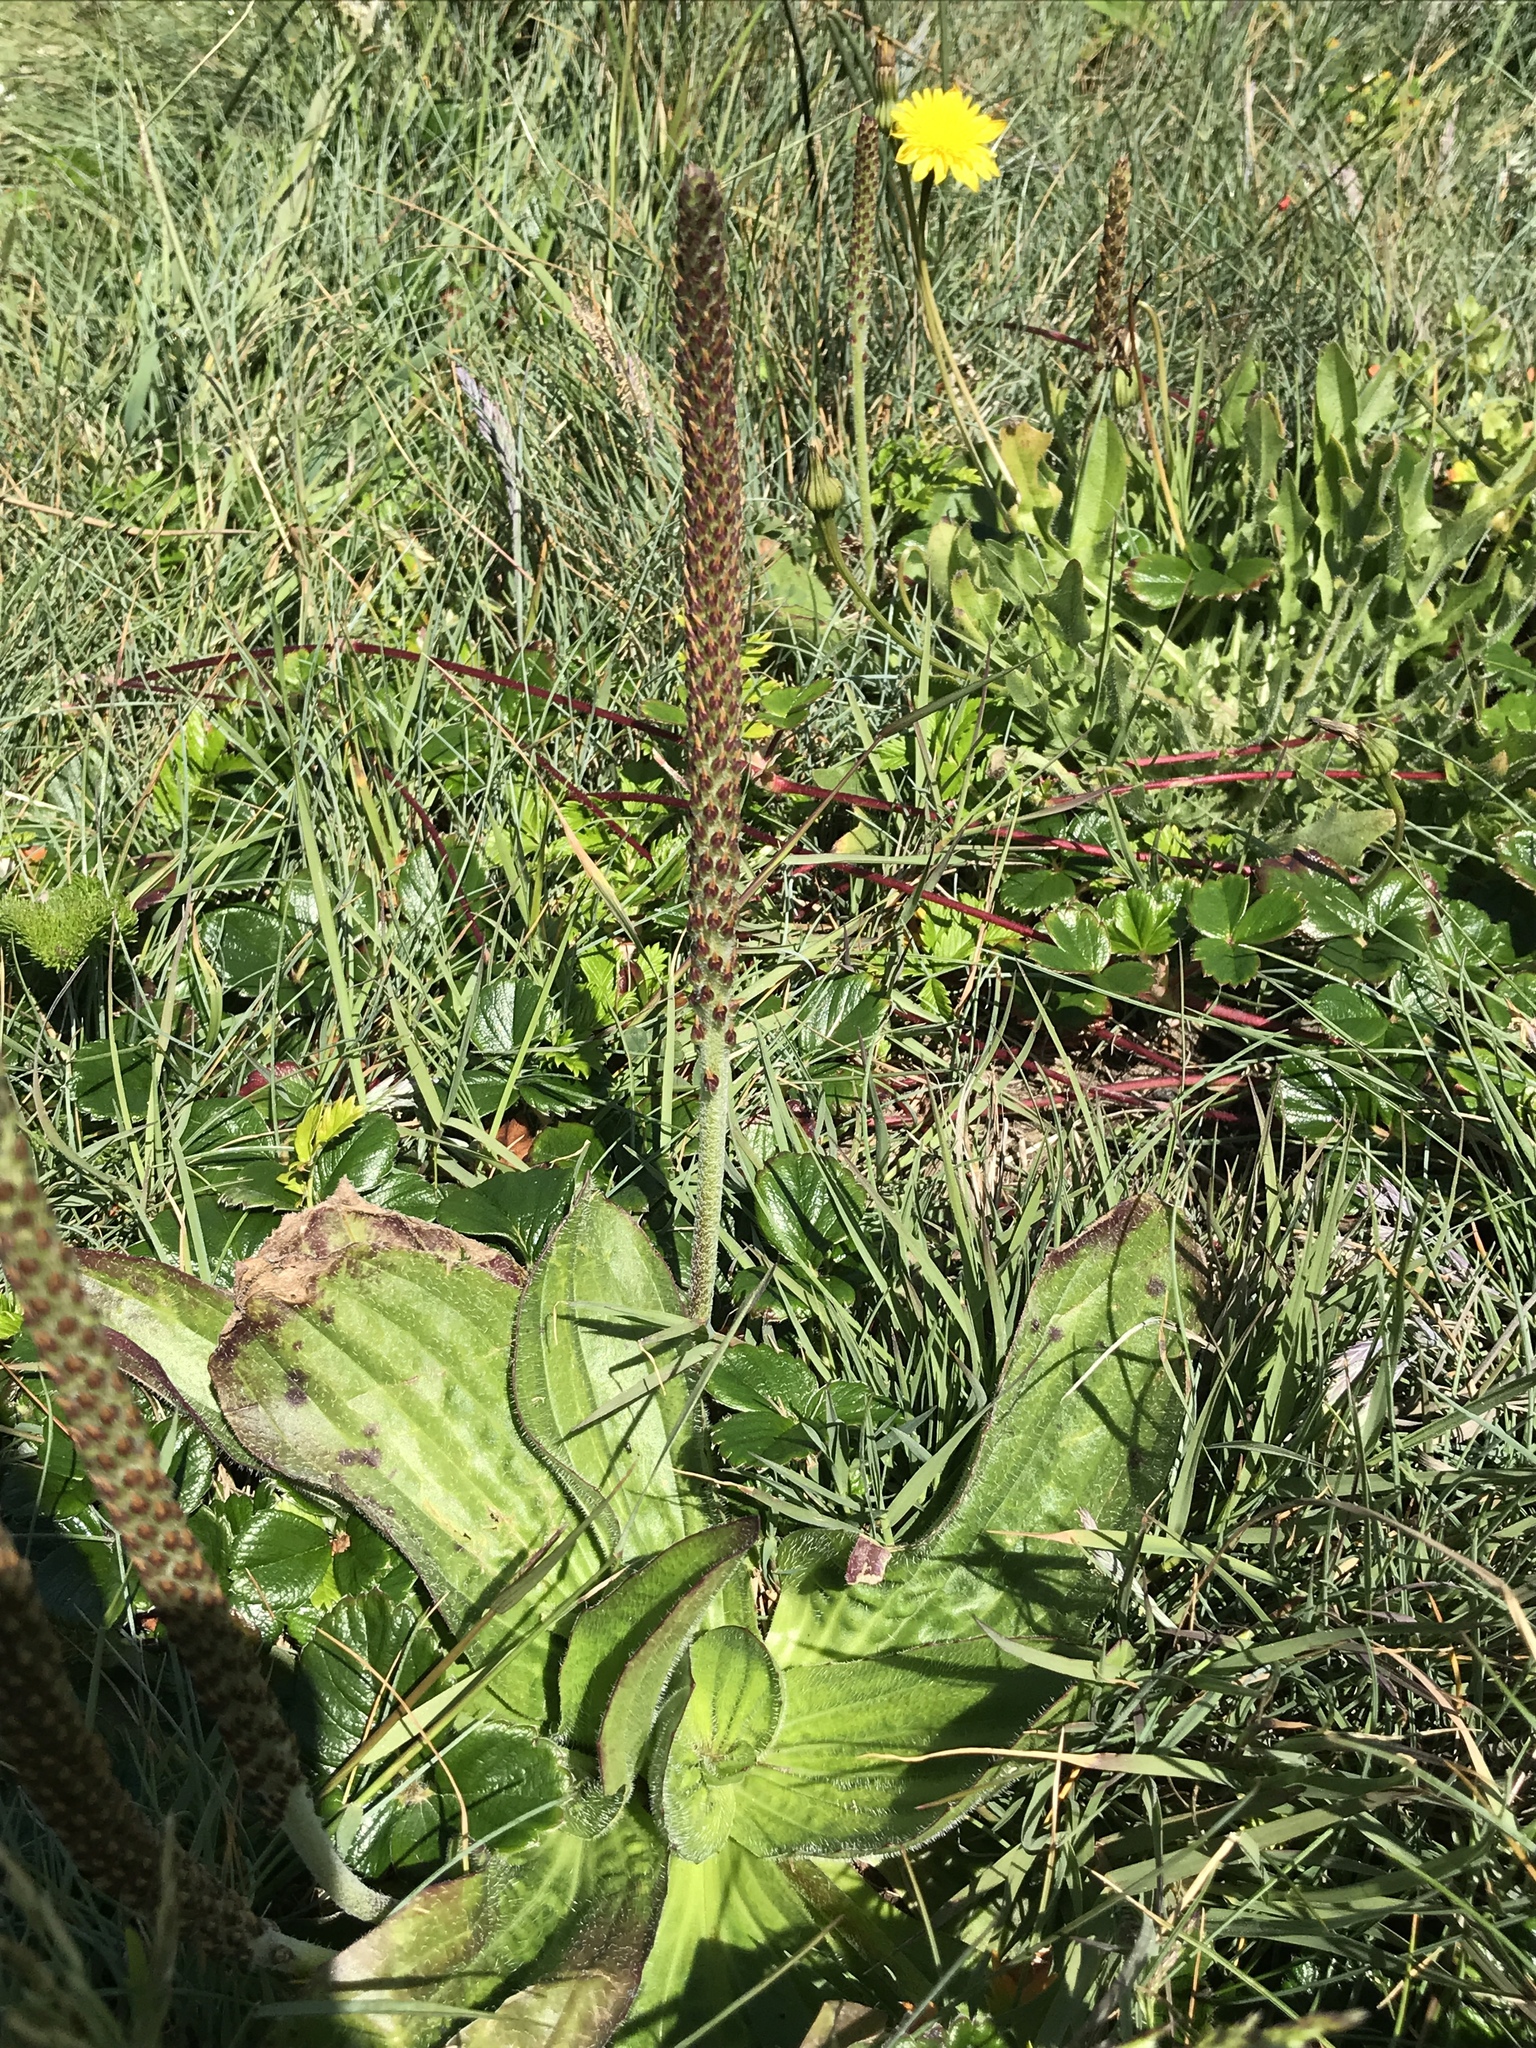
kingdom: Plantae
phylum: Tracheophyta
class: Magnoliopsida
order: Lamiales
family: Plantaginaceae
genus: Plantago
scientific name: Plantago subnuda
